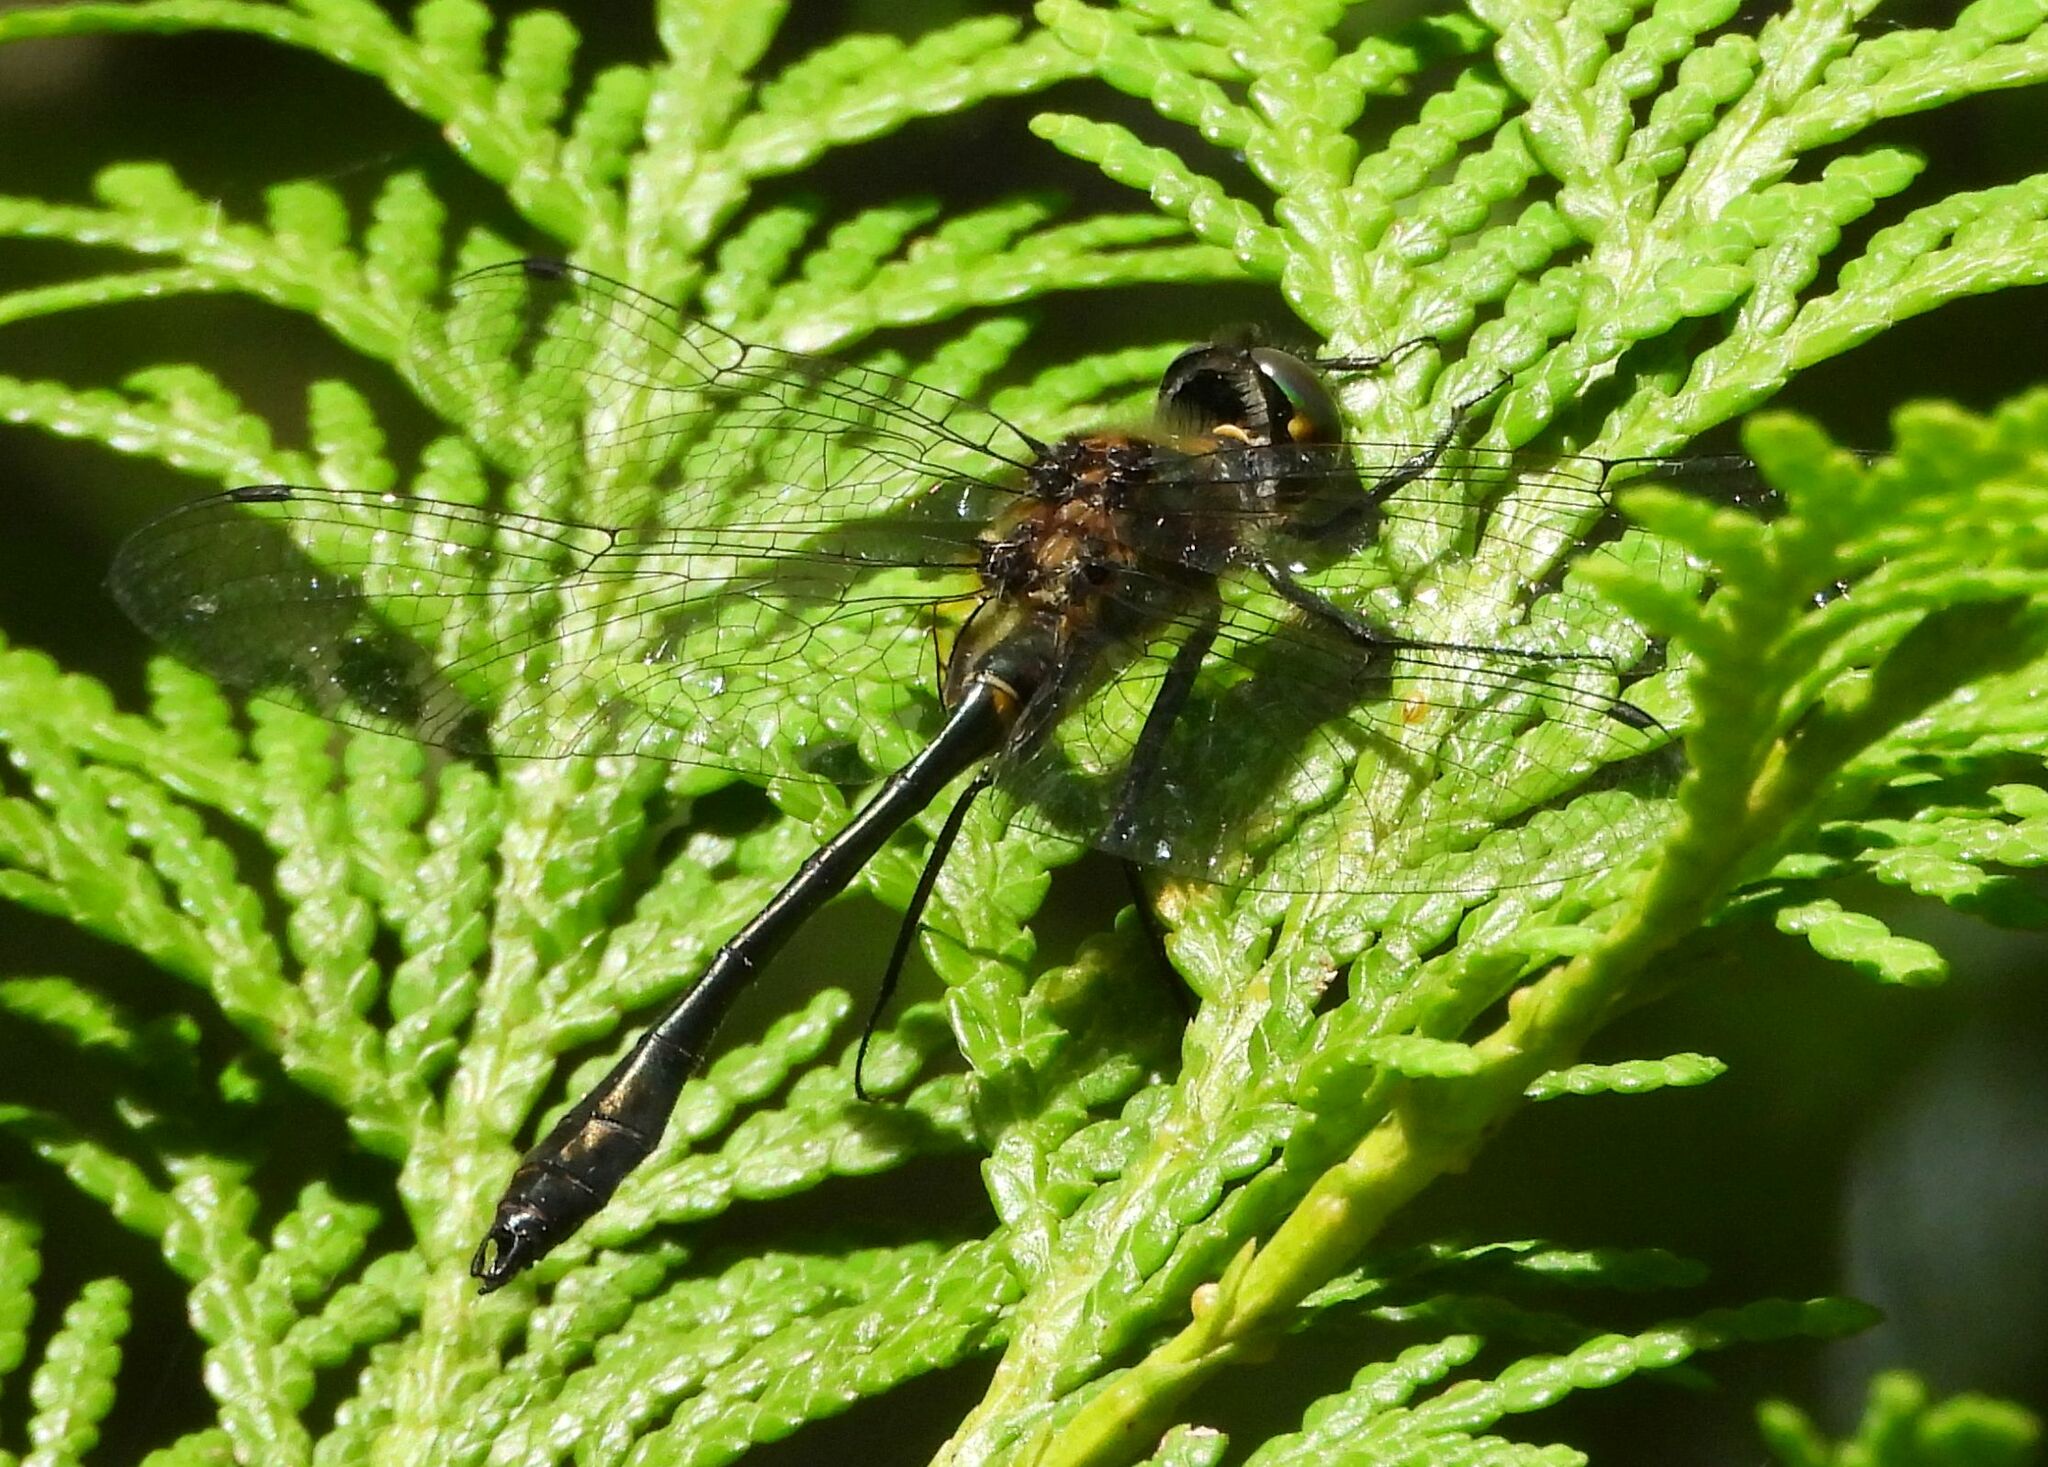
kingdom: Animalia
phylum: Arthropoda
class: Insecta
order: Odonata
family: Corduliidae
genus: Dorocordulia
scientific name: Dorocordulia libera
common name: Racket-tailed emerald
